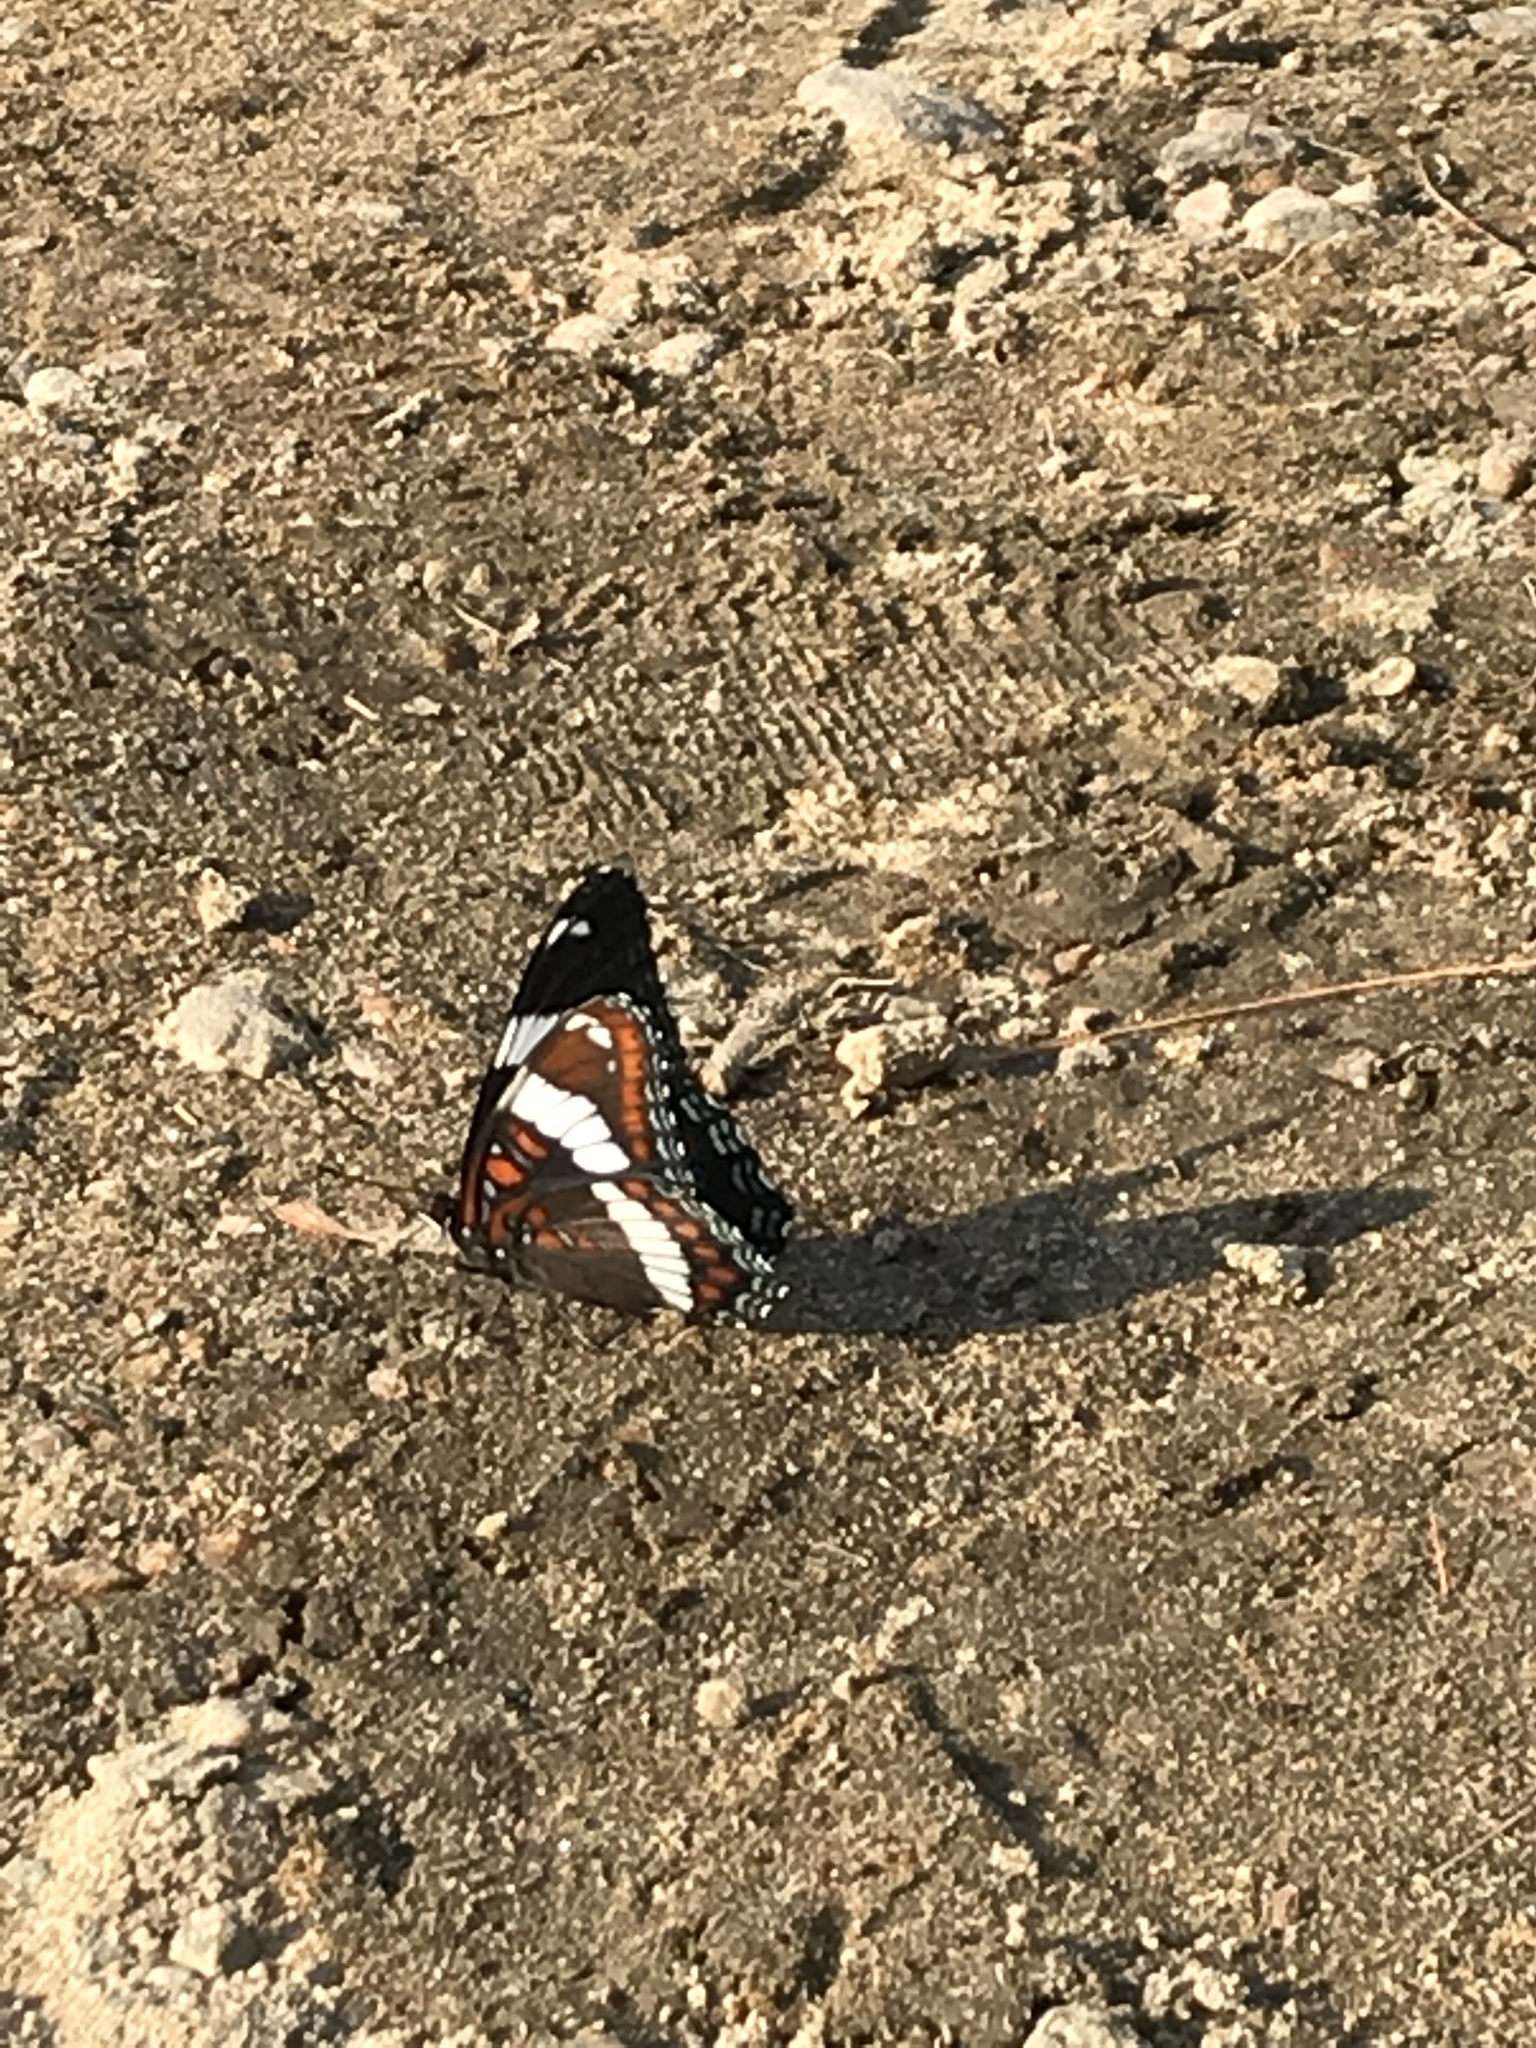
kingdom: Animalia
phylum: Arthropoda
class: Insecta
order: Lepidoptera
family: Nymphalidae
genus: Limenitis
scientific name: Limenitis arthemis
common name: Red-spotted admiral
